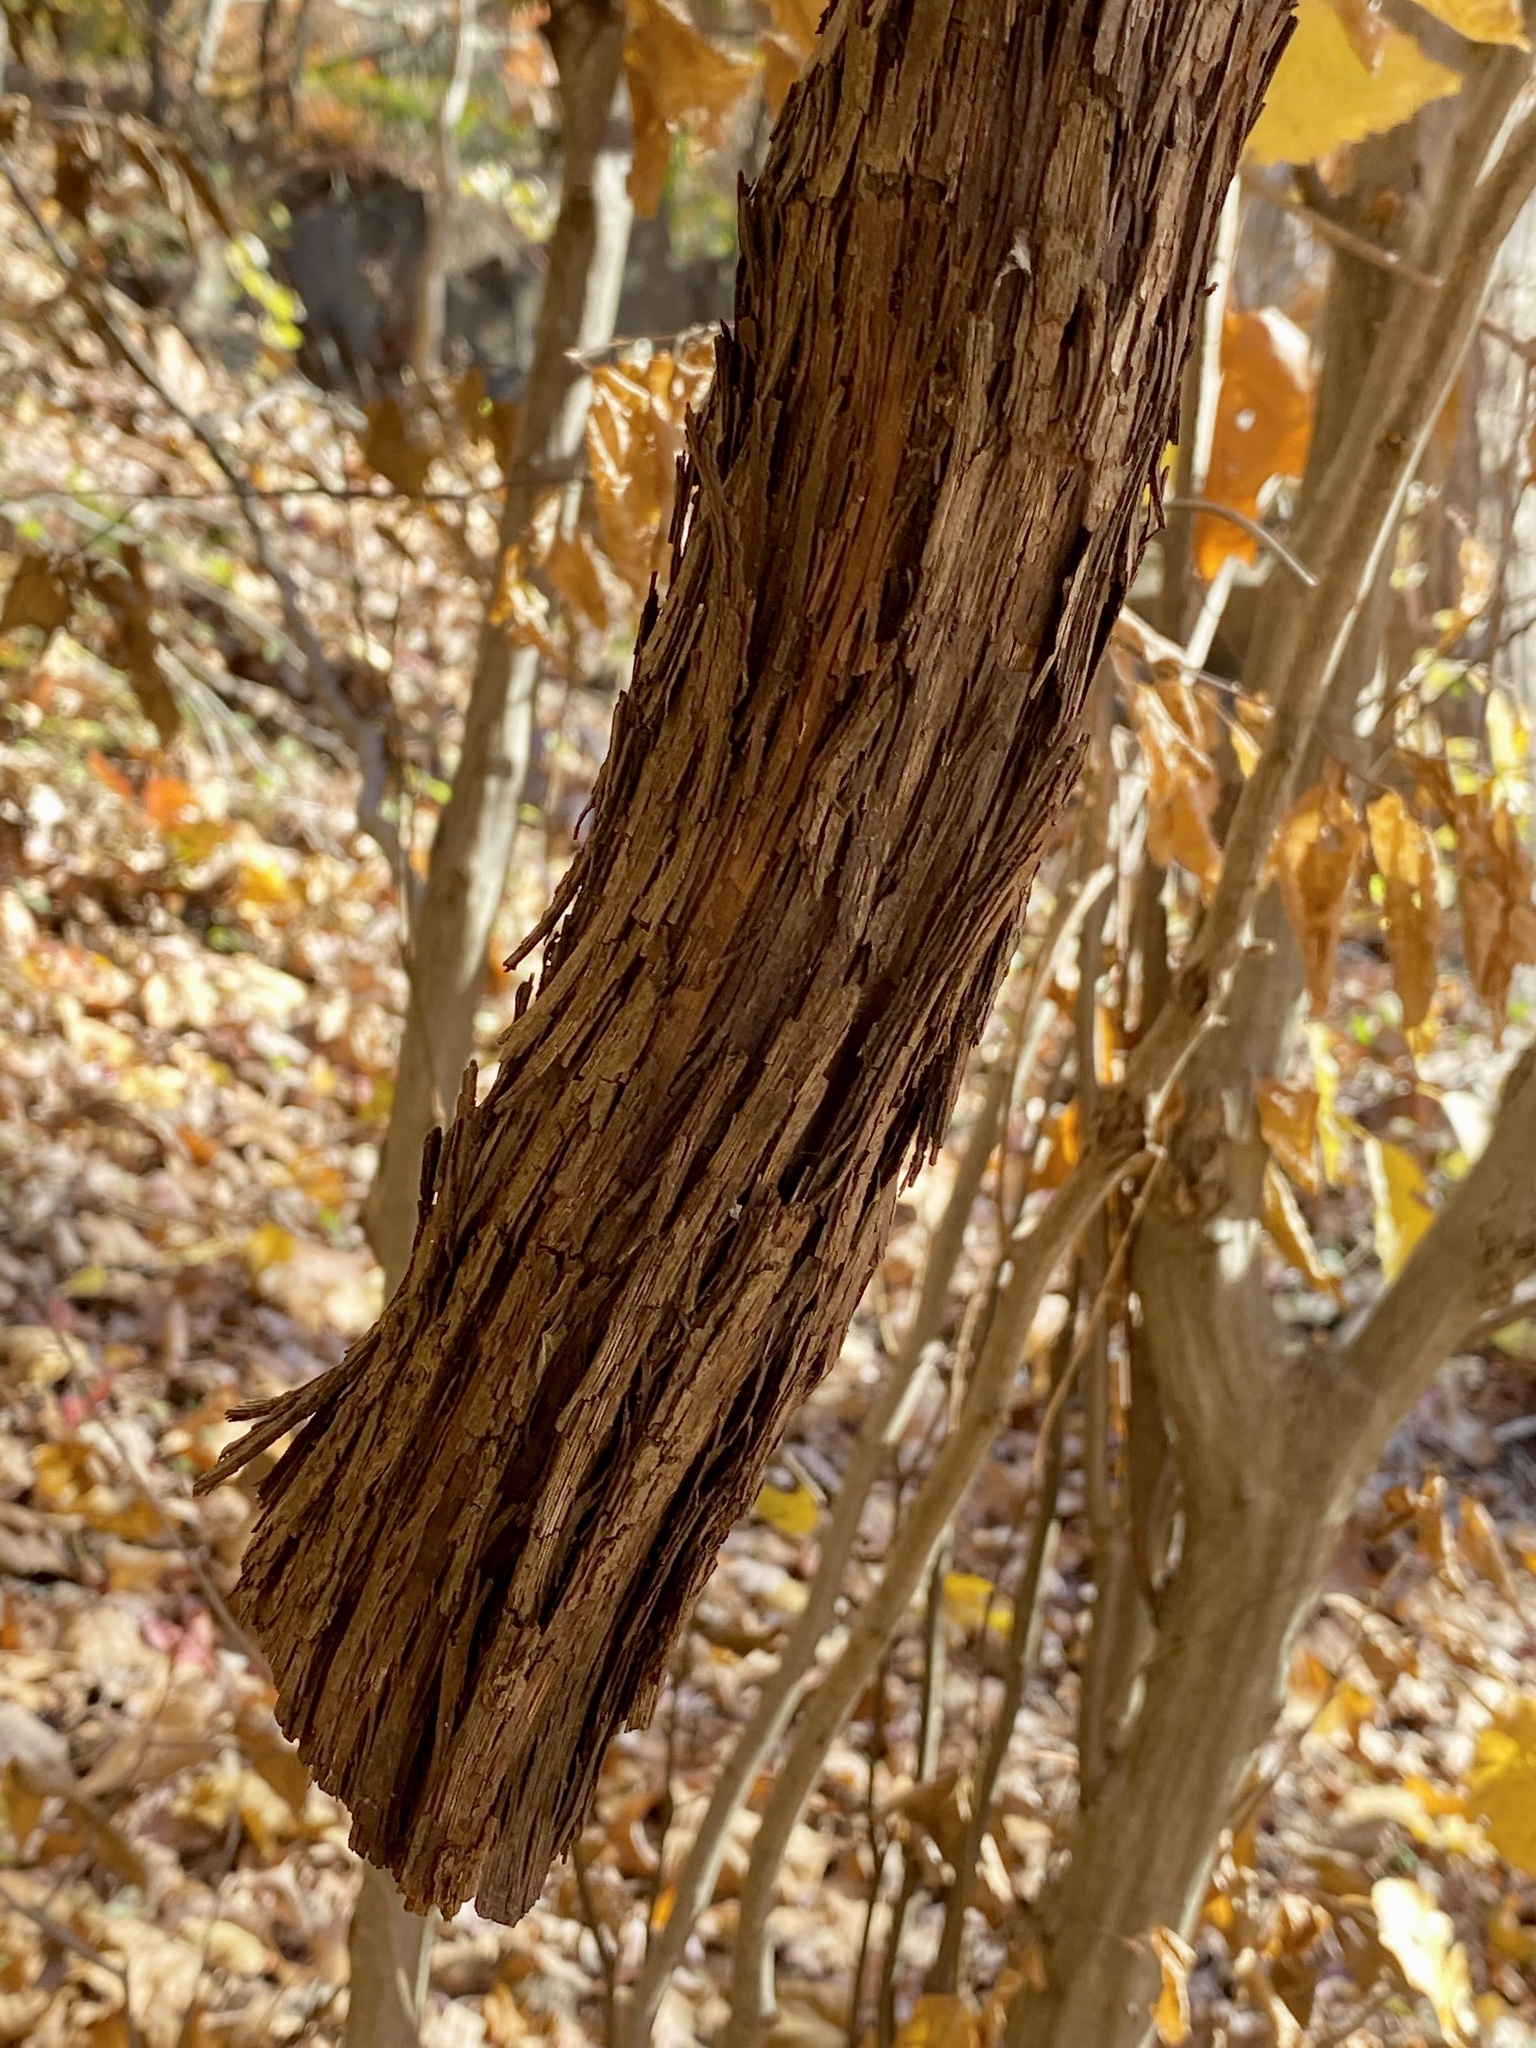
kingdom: Plantae
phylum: Tracheophyta
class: Magnoliopsida
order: Vitales
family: Vitaceae
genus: Vitis
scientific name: Vitis
